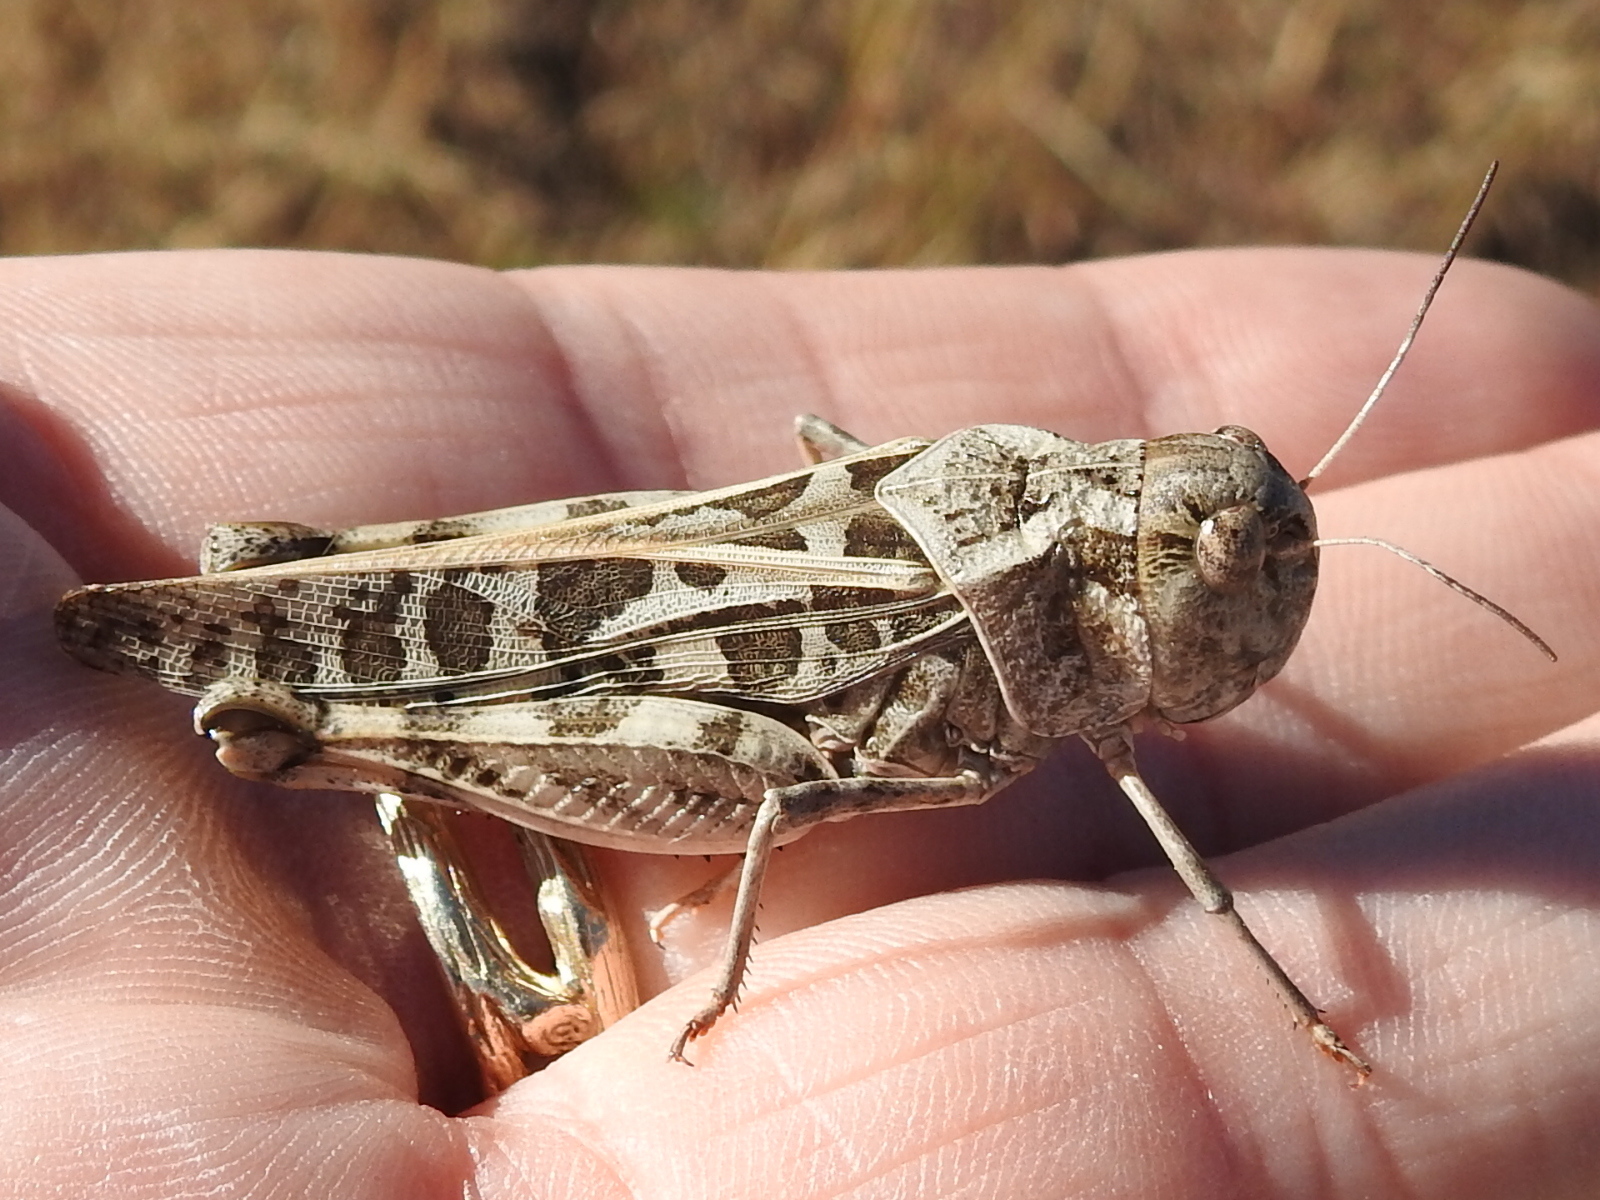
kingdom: Animalia
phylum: Arthropoda
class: Insecta
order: Orthoptera
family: Acrididae
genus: Hippiscus
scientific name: Hippiscus ocelote
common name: Wrinkled grasshopper
